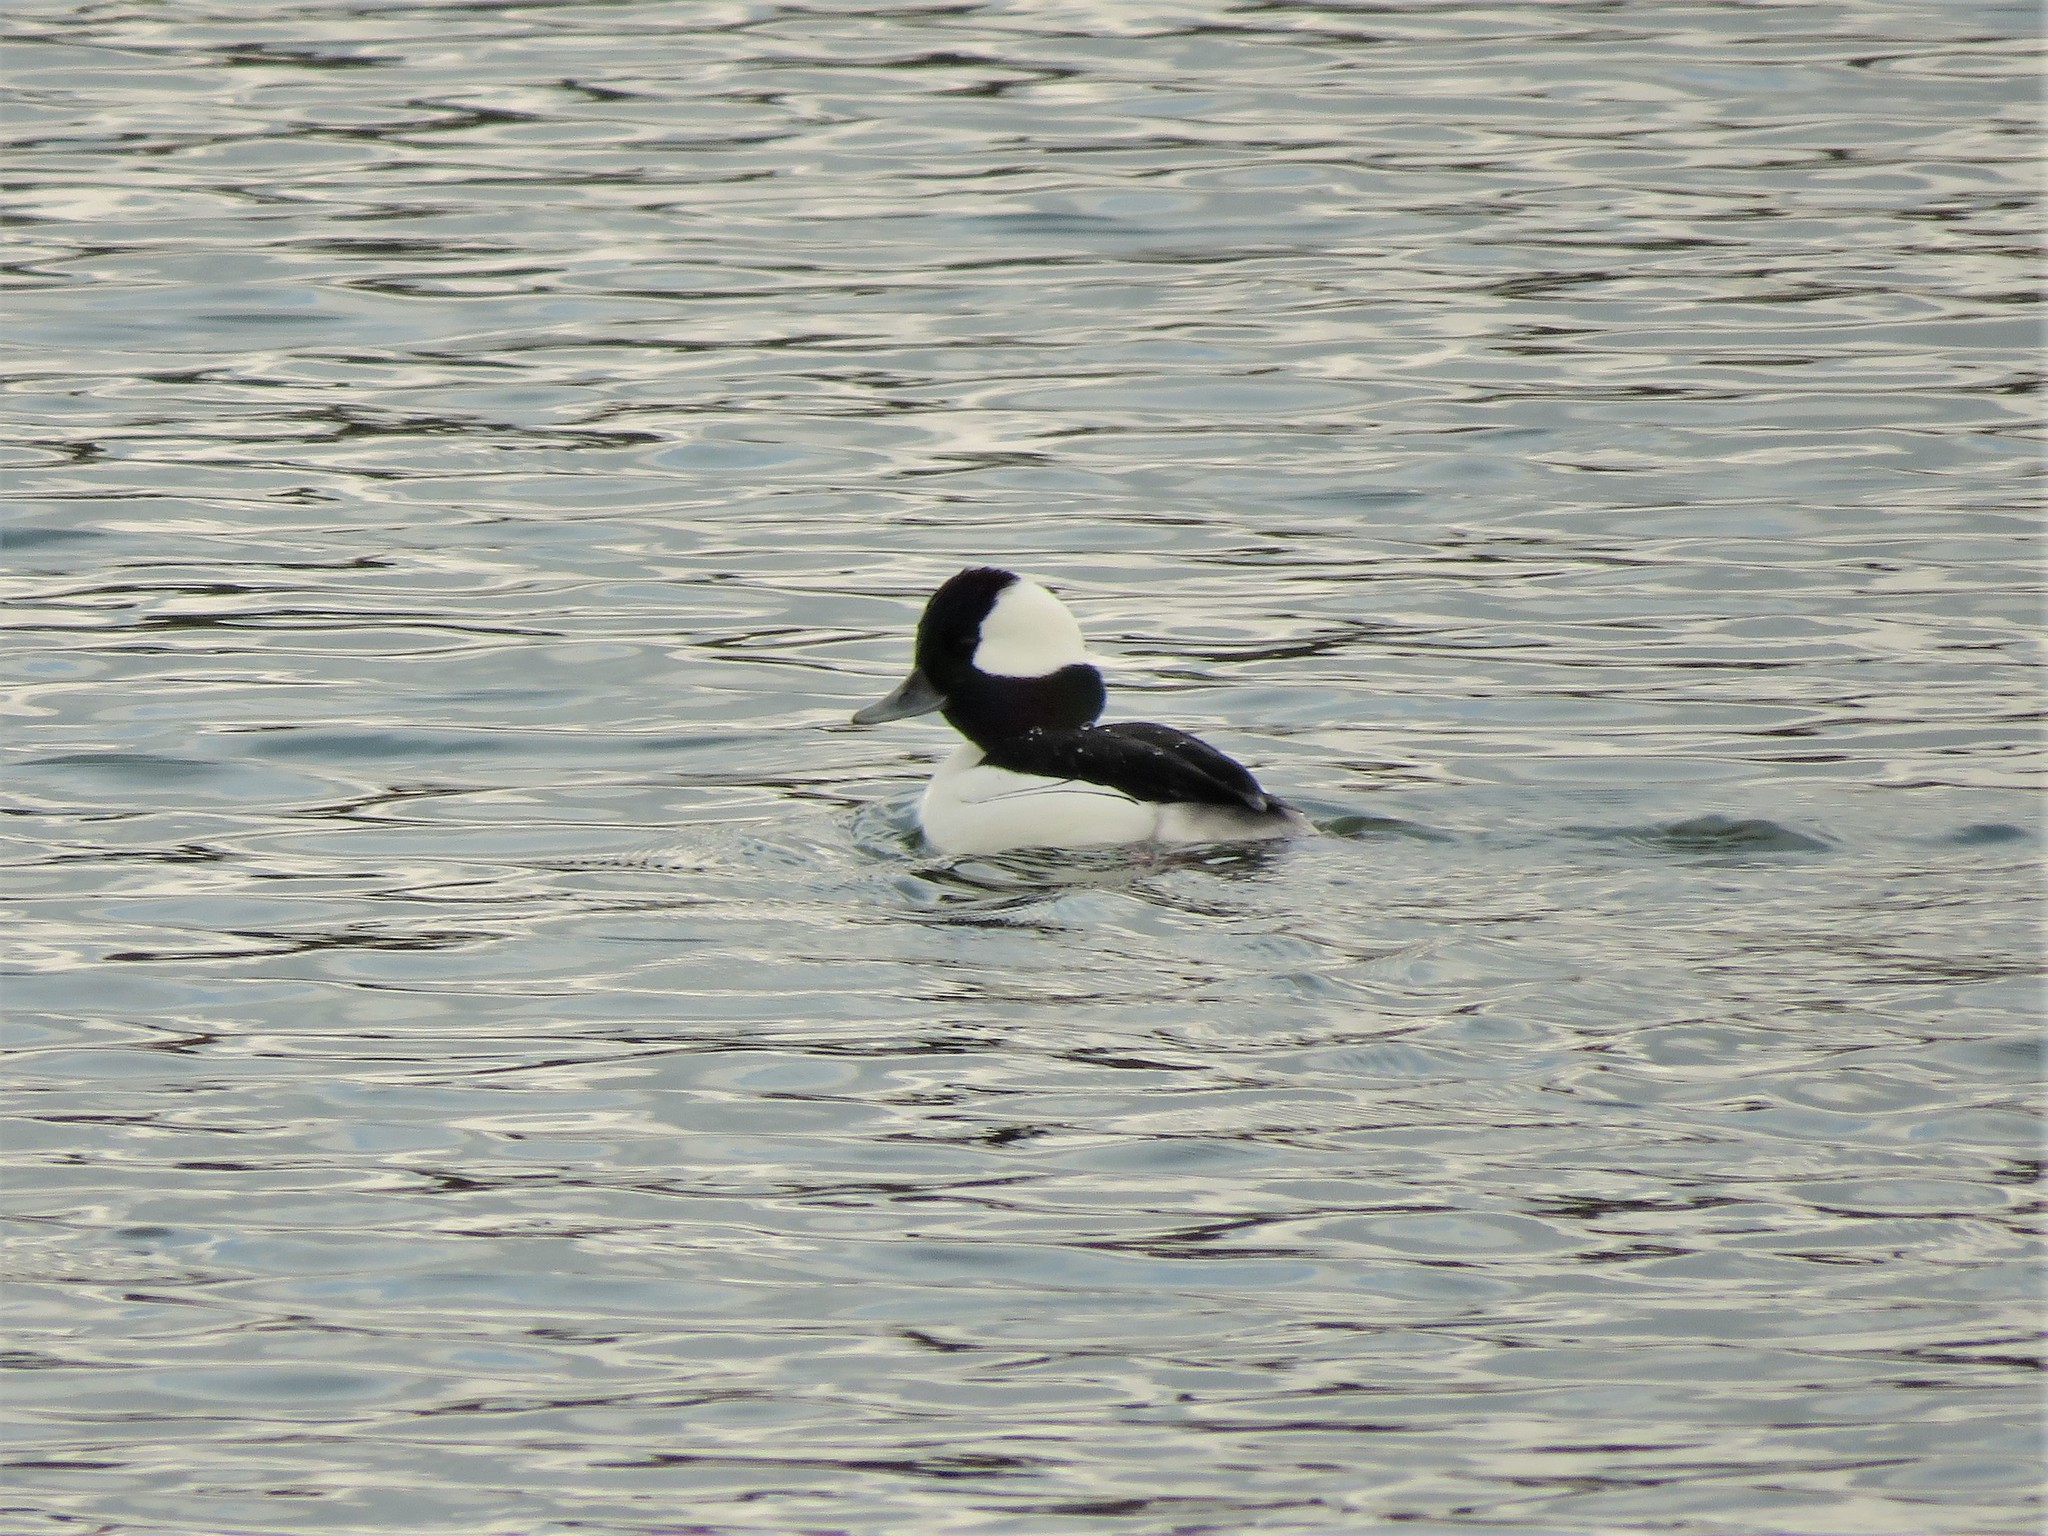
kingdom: Animalia
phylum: Chordata
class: Aves
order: Anseriformes
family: Anatidae
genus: Bucephala
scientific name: Bucephala albeola
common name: Bufflehead
